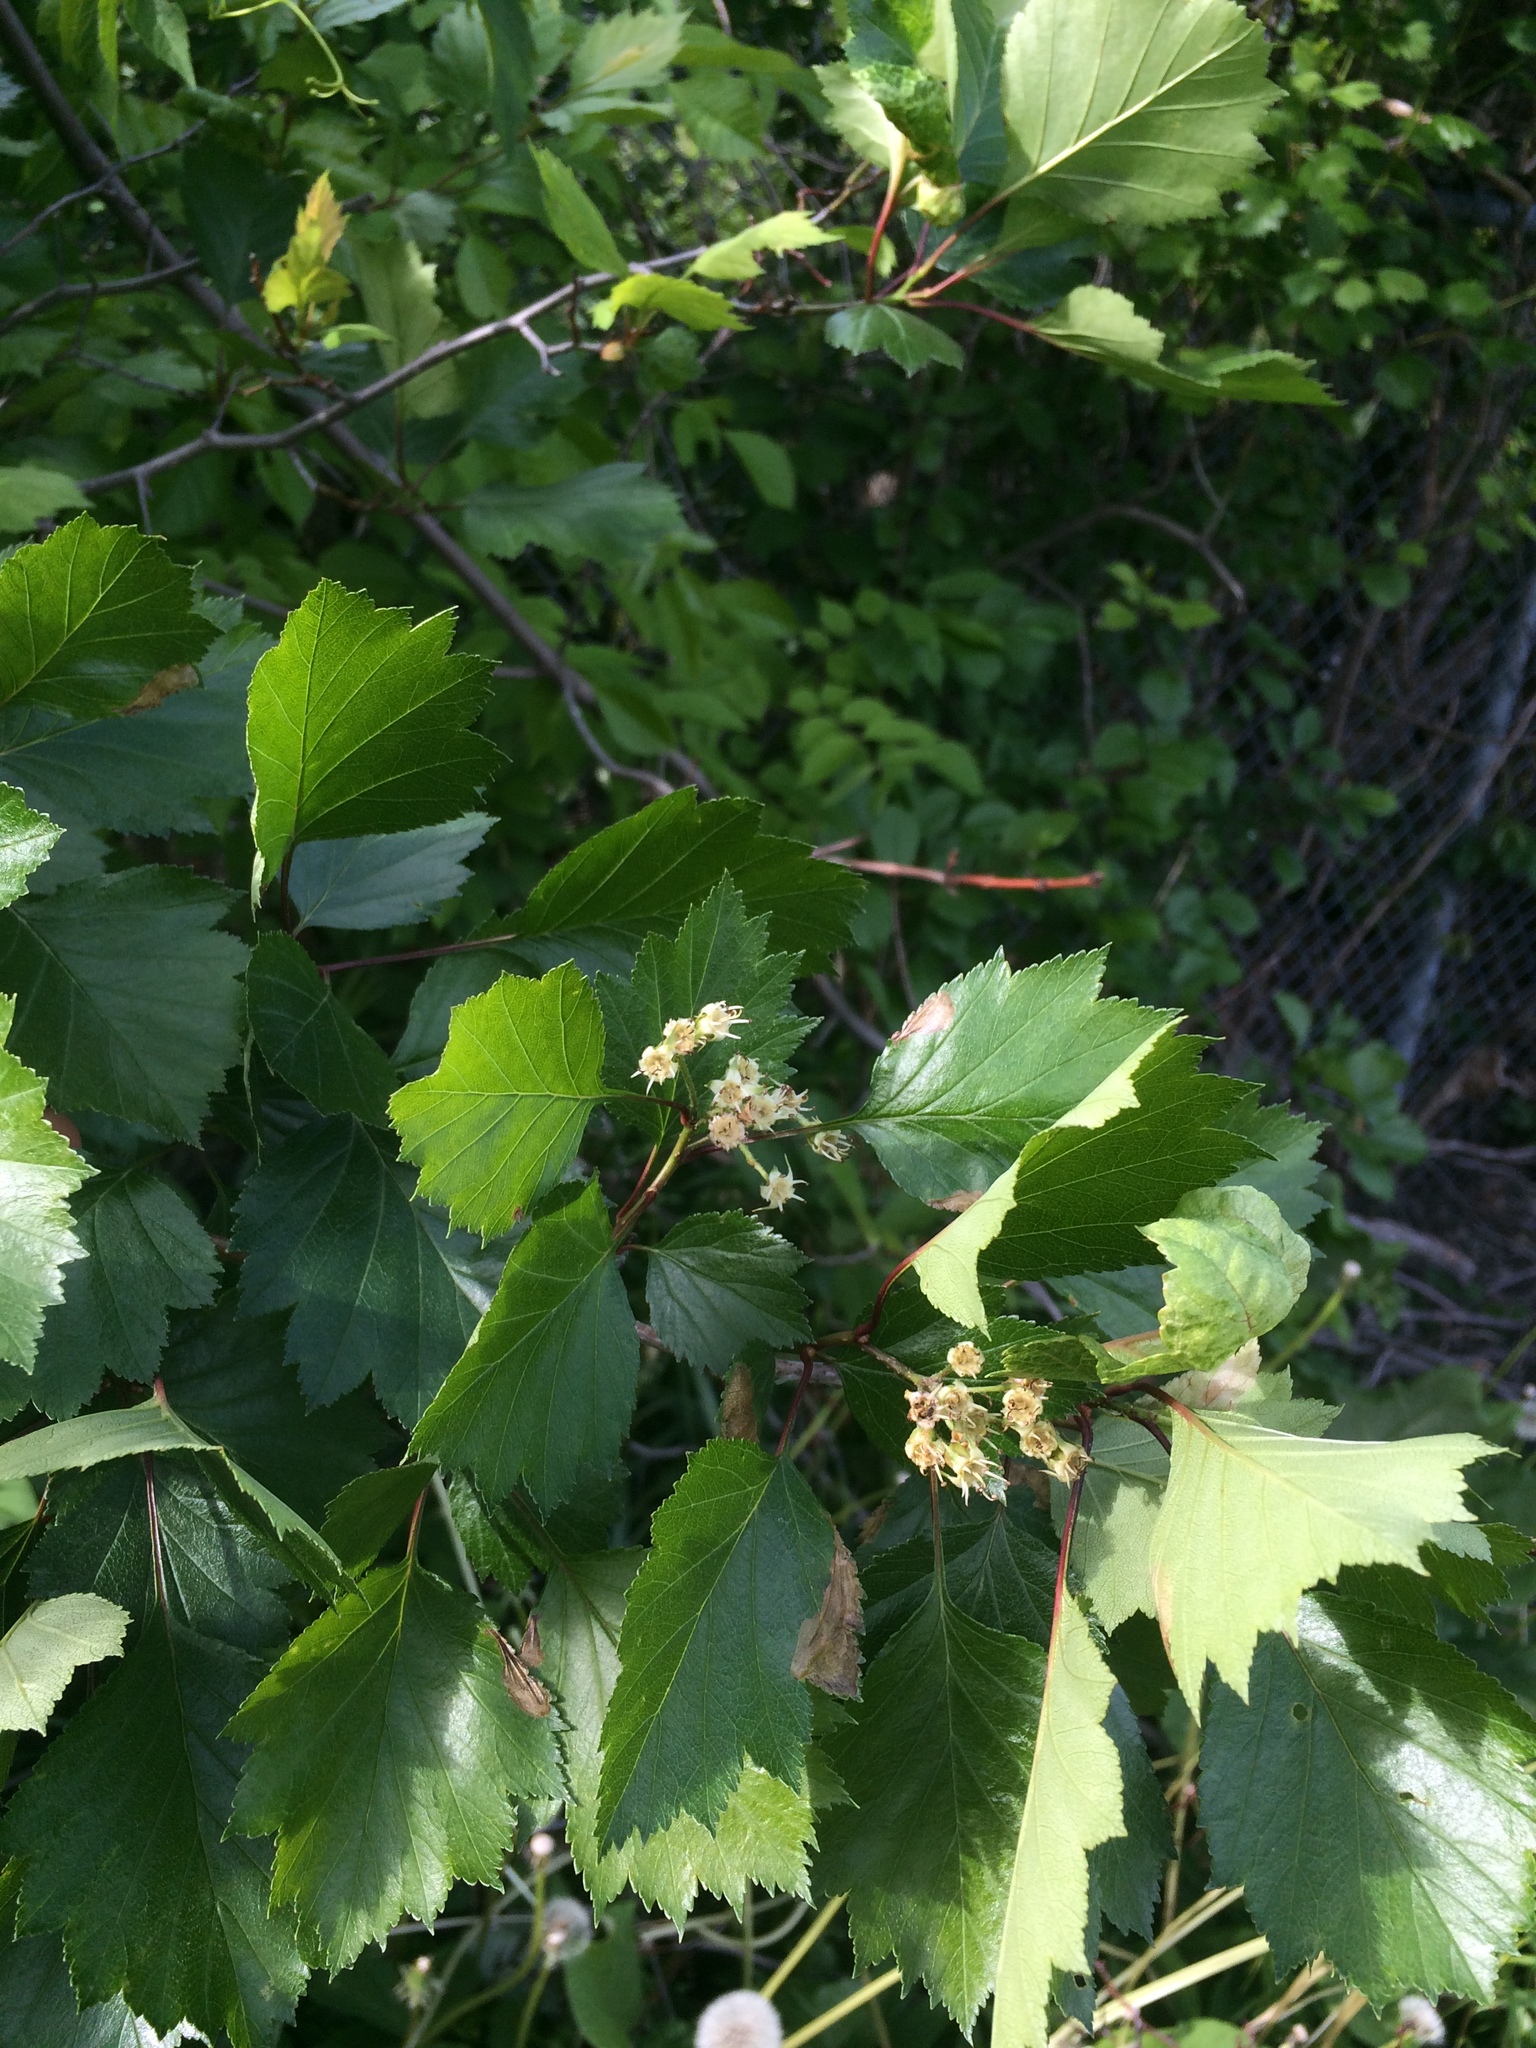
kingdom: Plantae
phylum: Tracheophyta
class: Magnoliopsida
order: Rosales
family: Rosaceae
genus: Crataegus
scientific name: Crataegus flabellata
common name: Bosc's hawthorn
